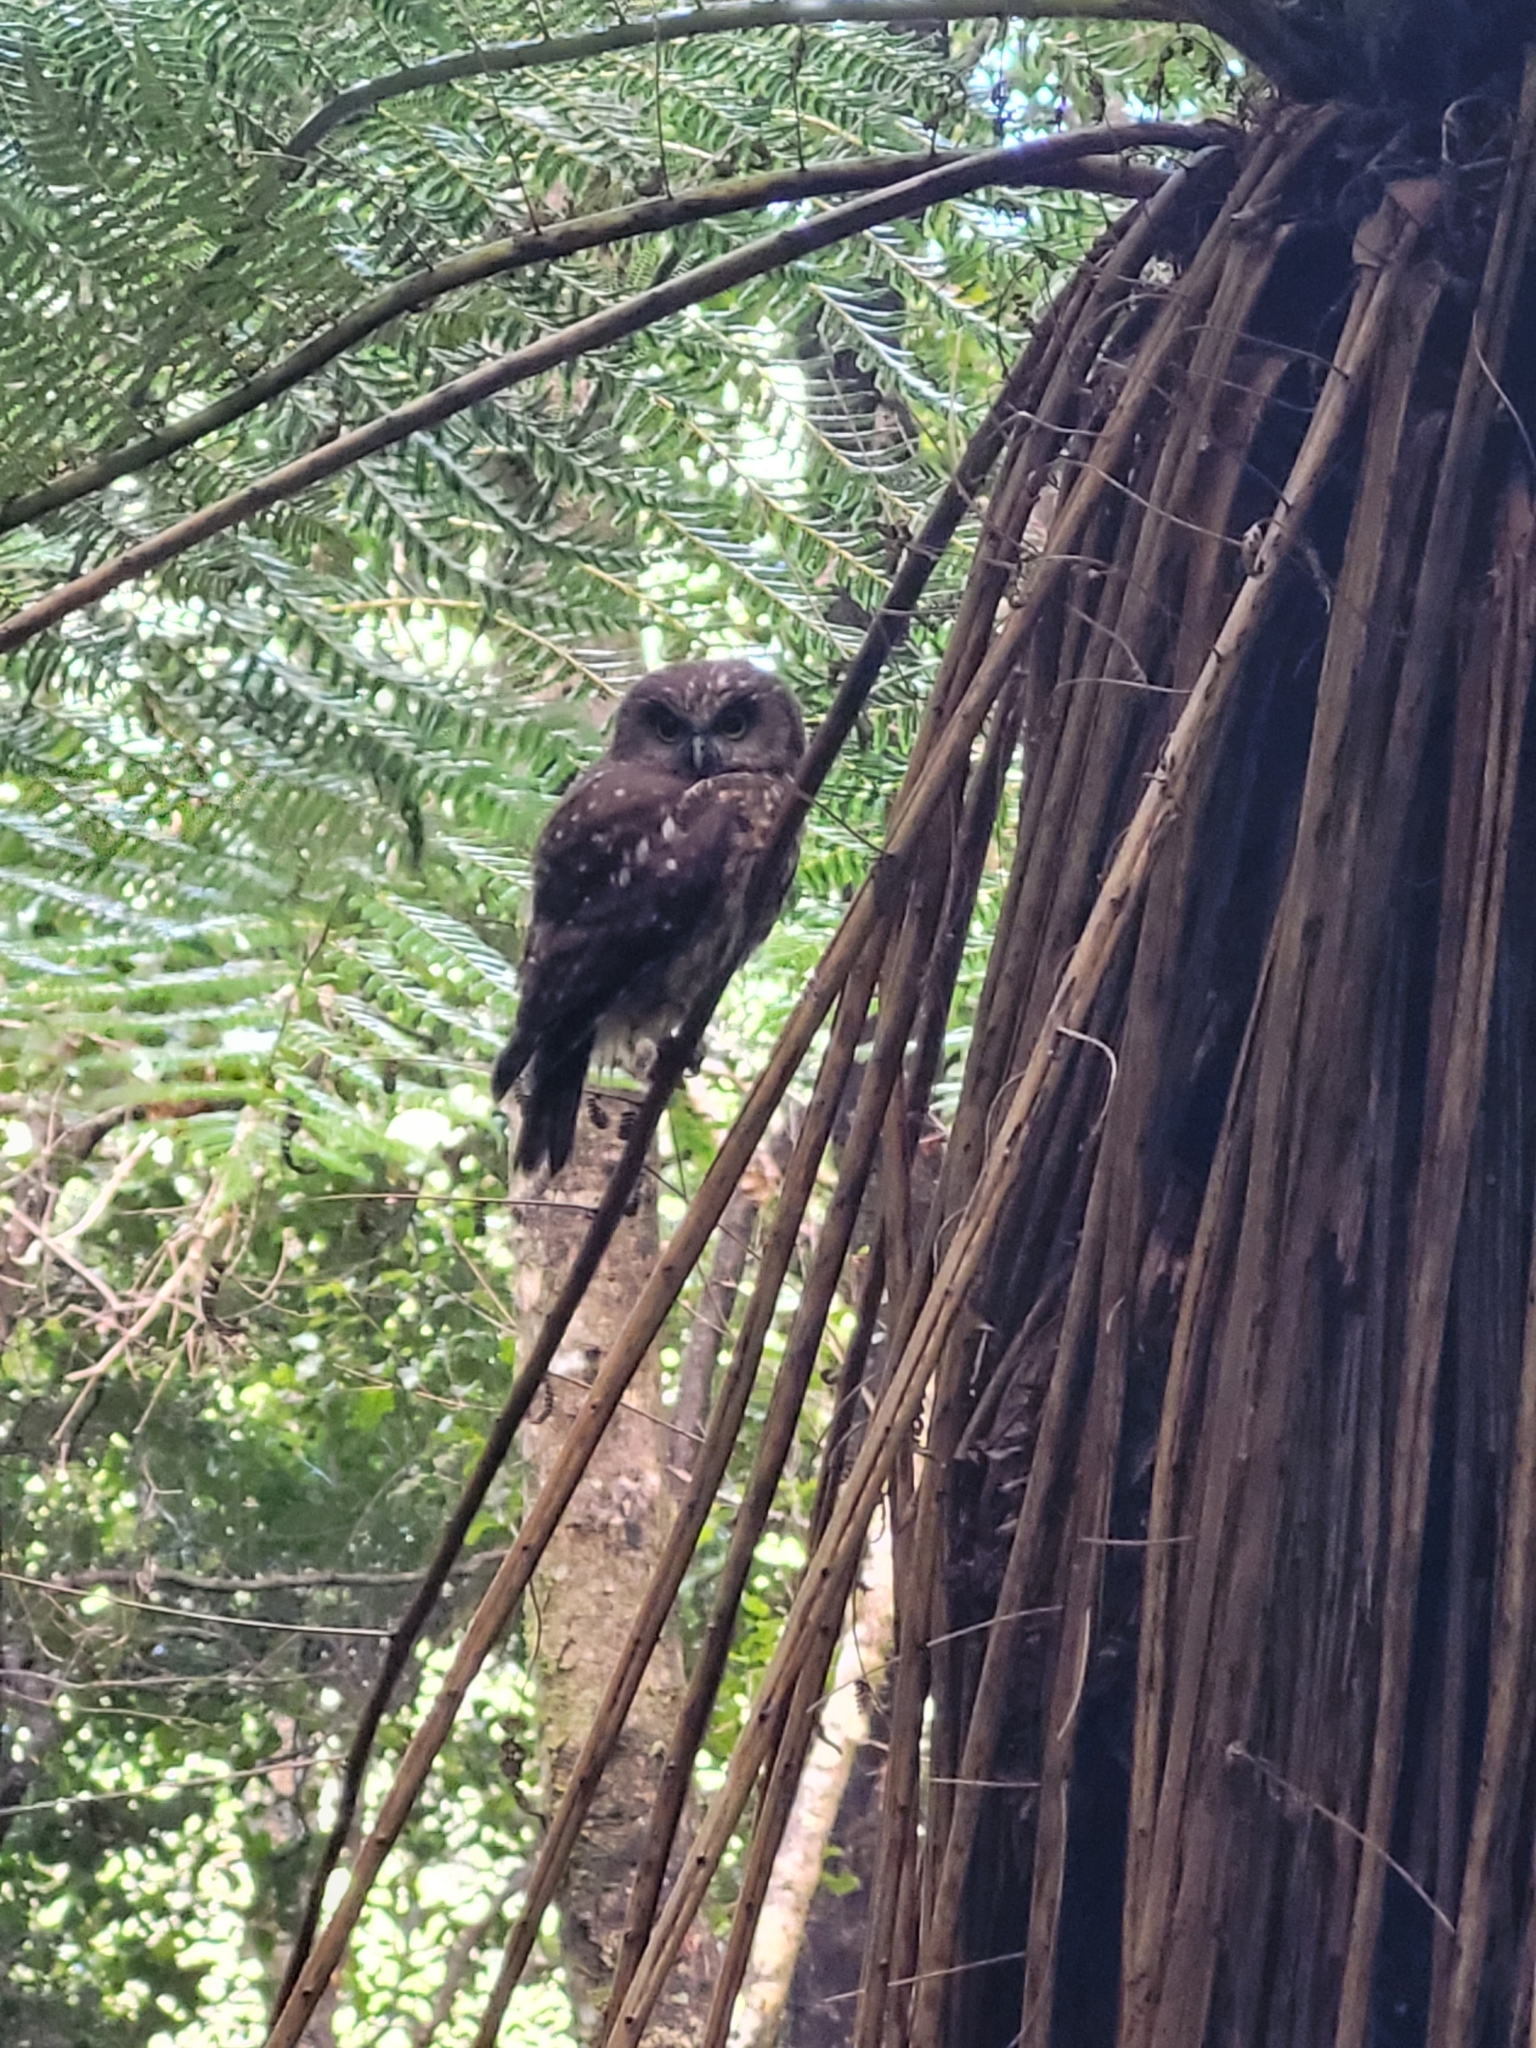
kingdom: Animalia
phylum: Chordata
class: Aves
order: Strigiformes
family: Strigidae
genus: Ninox
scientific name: Ninox novaeseelandiae
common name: Morepork
